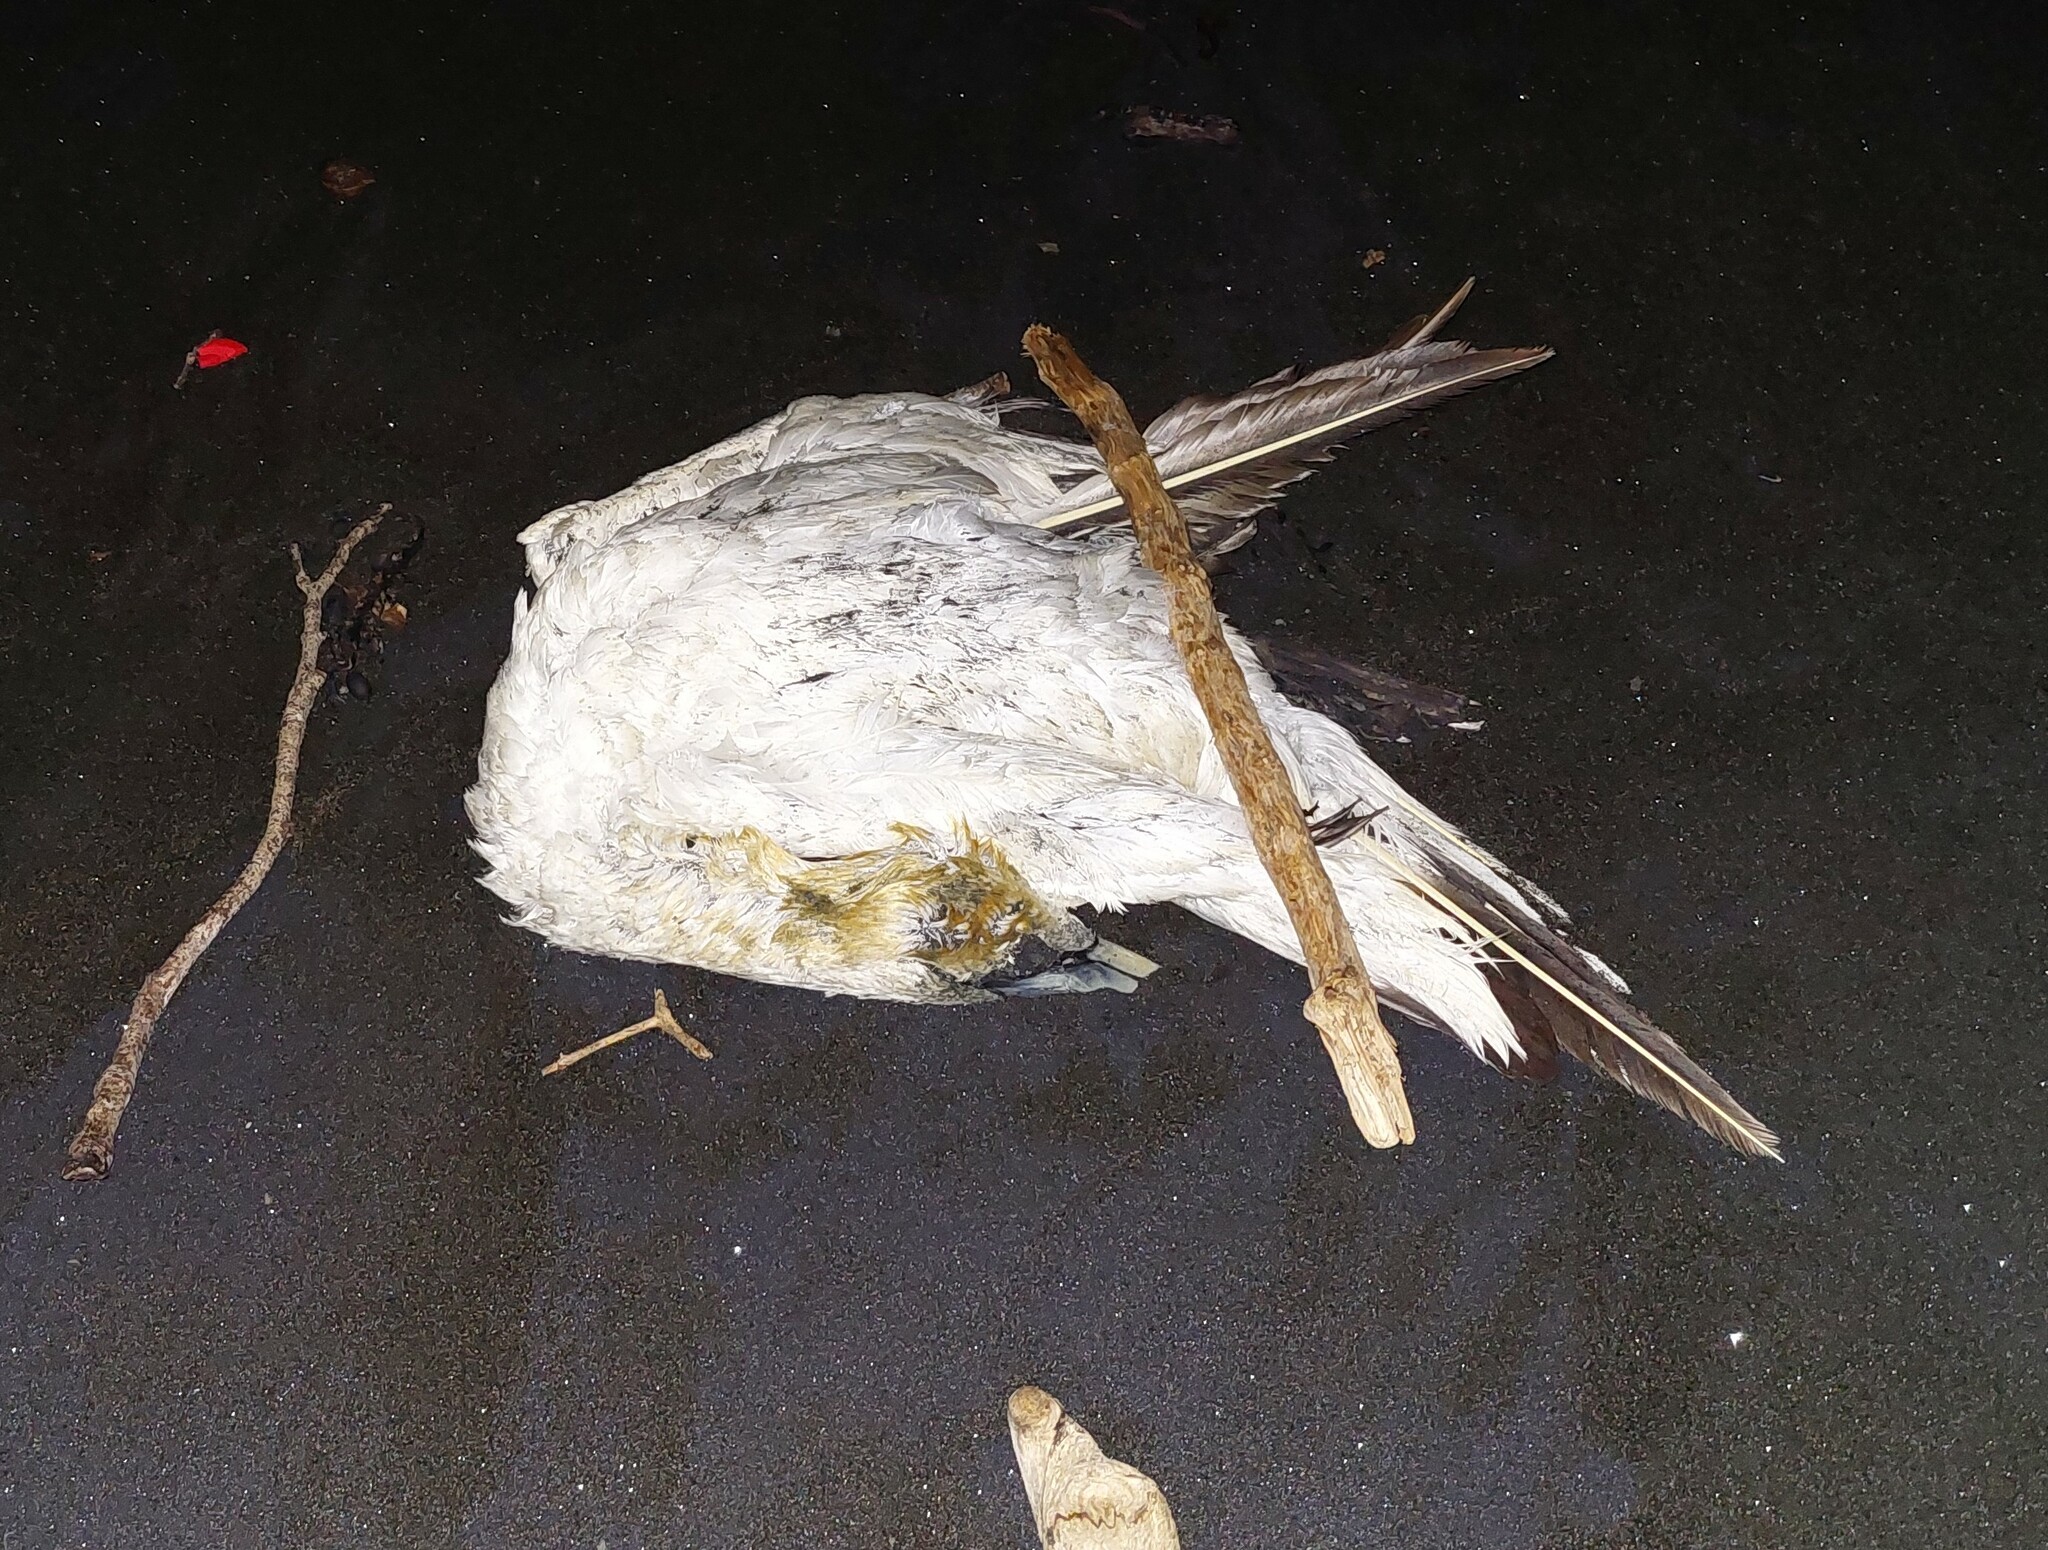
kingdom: Animalia
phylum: Chordata
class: Aves
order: Suliformes
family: Sulidae
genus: Morus
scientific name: Morus serrator
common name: Australasian gannet
